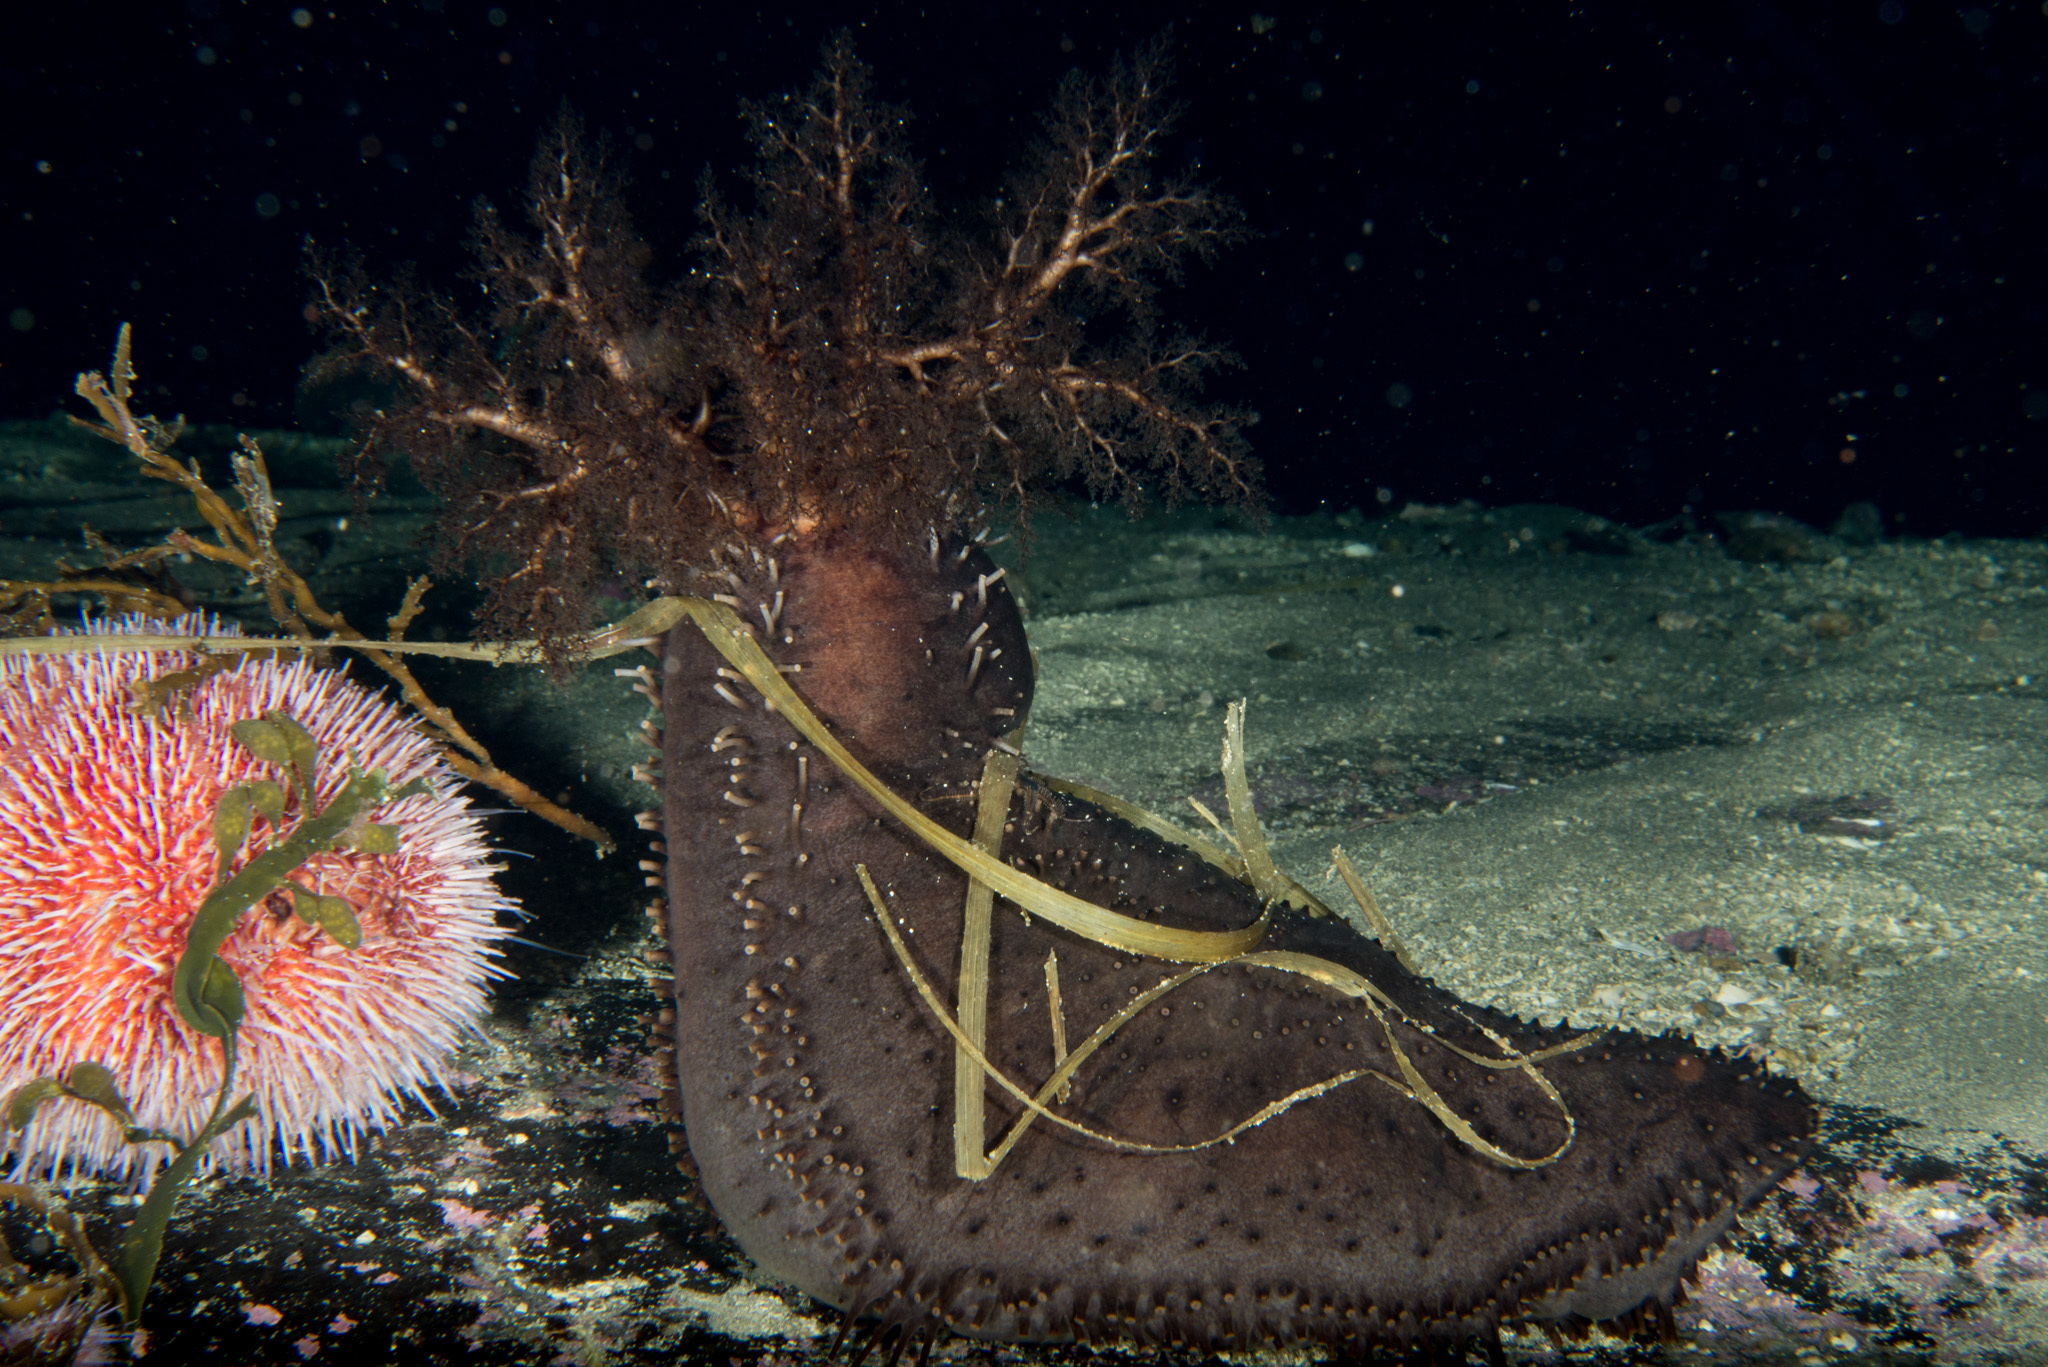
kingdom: Animalia
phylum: Echinodermata
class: Holothuroidea
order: Dendrochirotida
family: Cucumariidae
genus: Cucumaria
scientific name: Cucumaria frondosa
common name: Orange-footed sea cucumber
